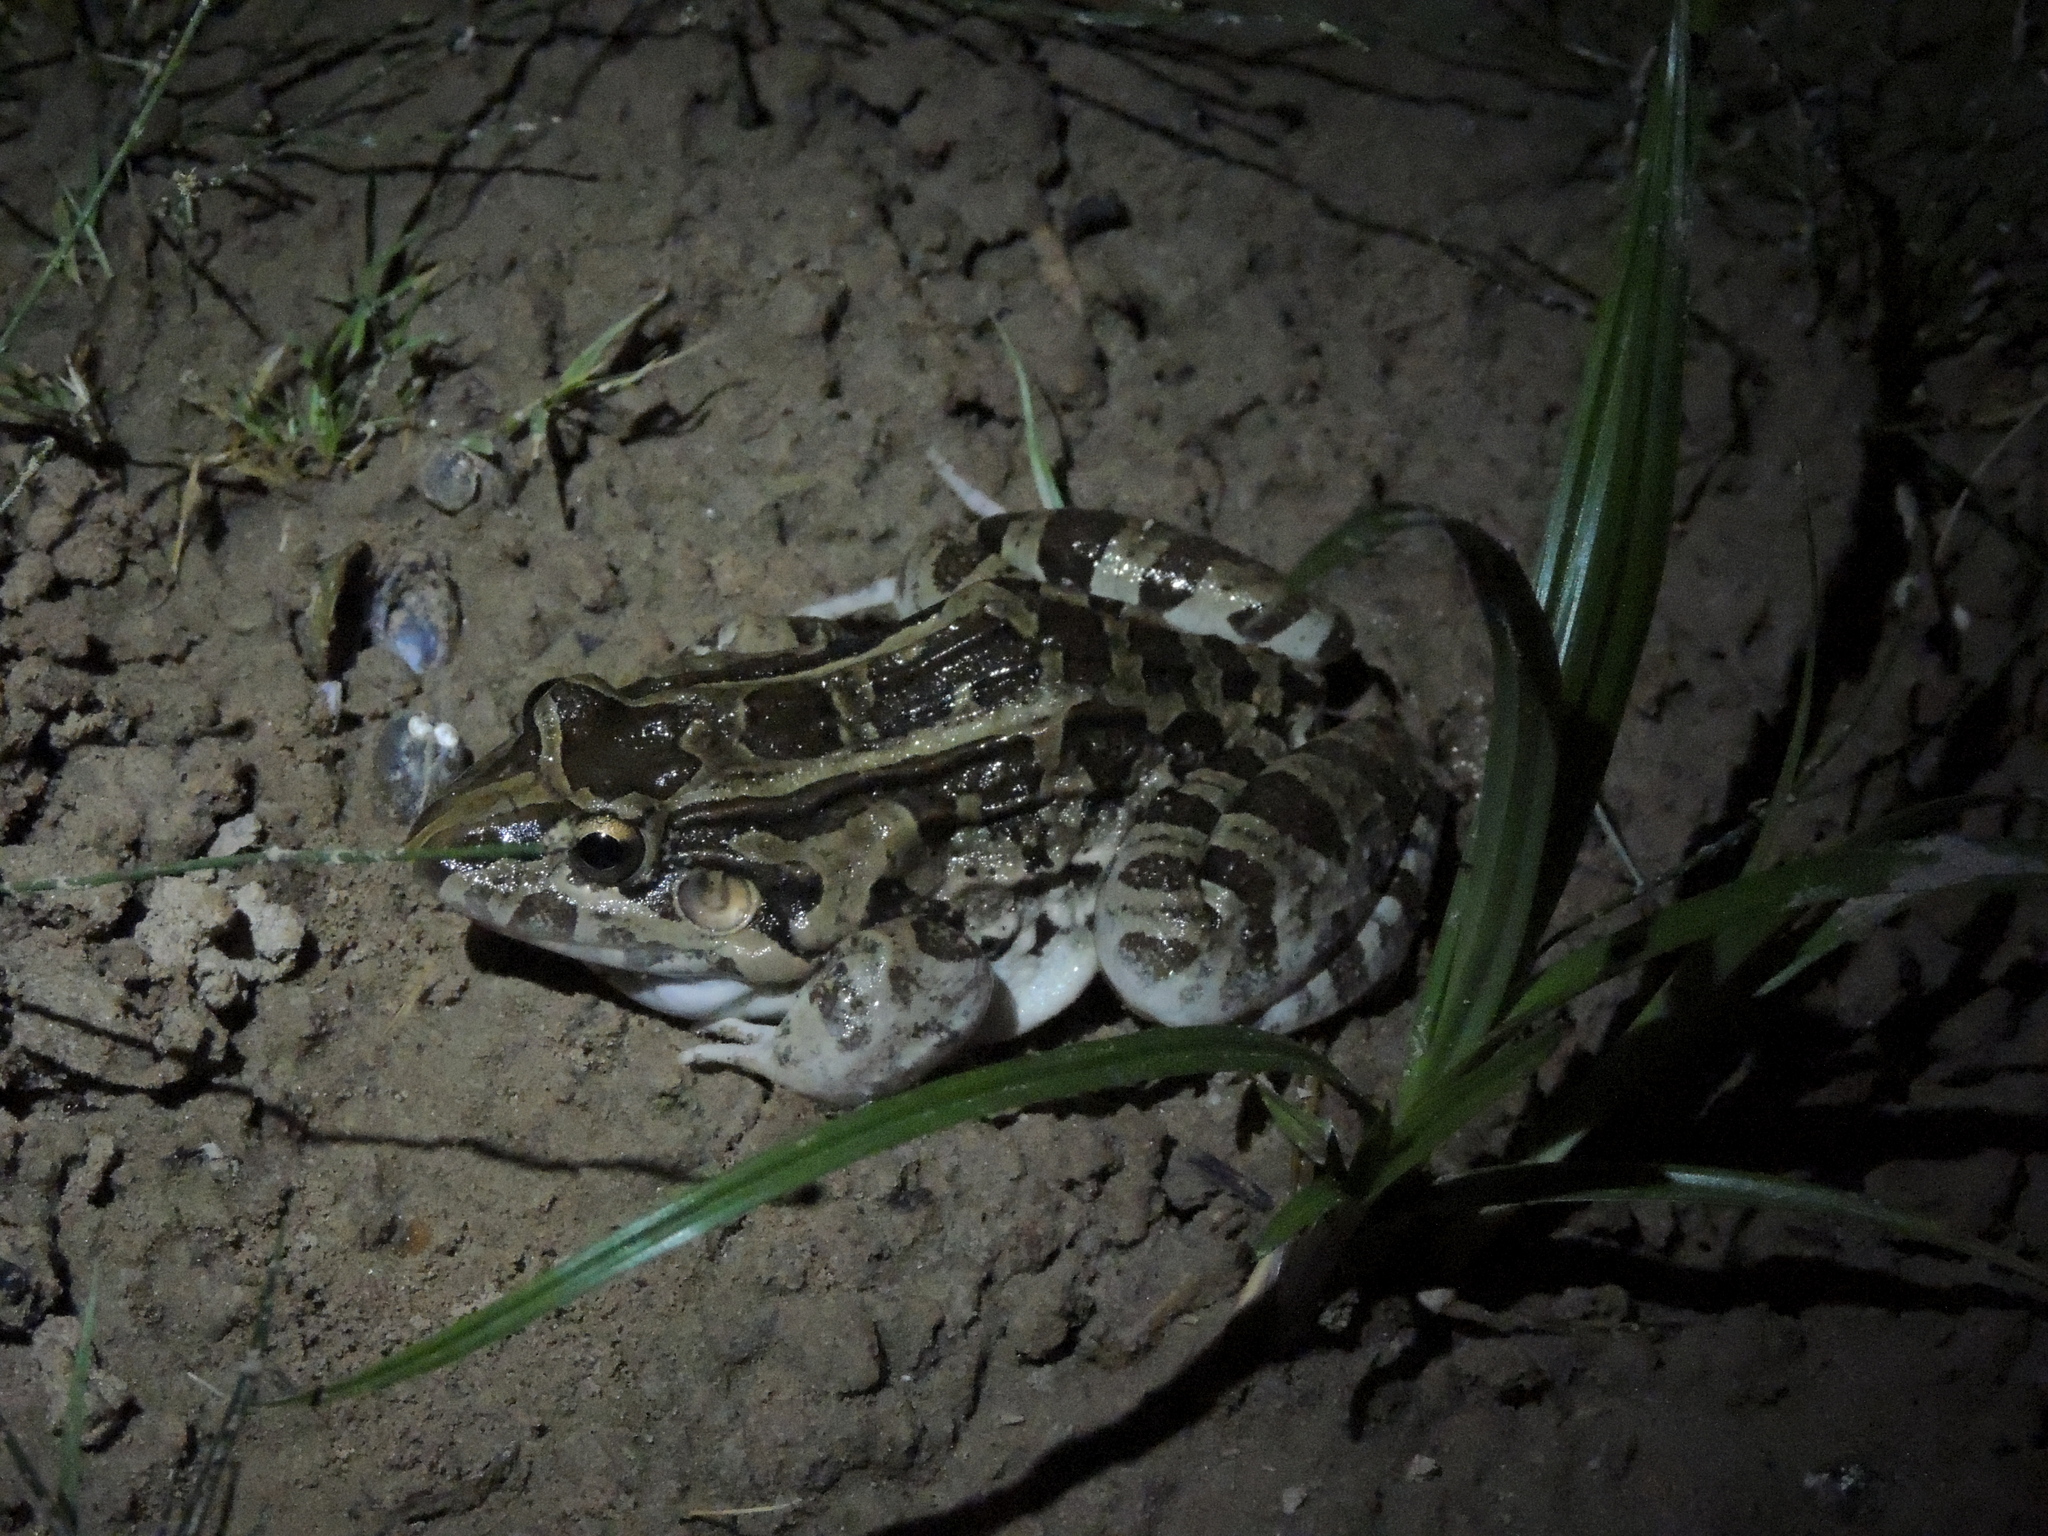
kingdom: Animalia
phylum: Chordata
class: Amphibia
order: Anura
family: Leptodactylidae
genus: Leptodactylus
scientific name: Leptodactylus macrosternum
